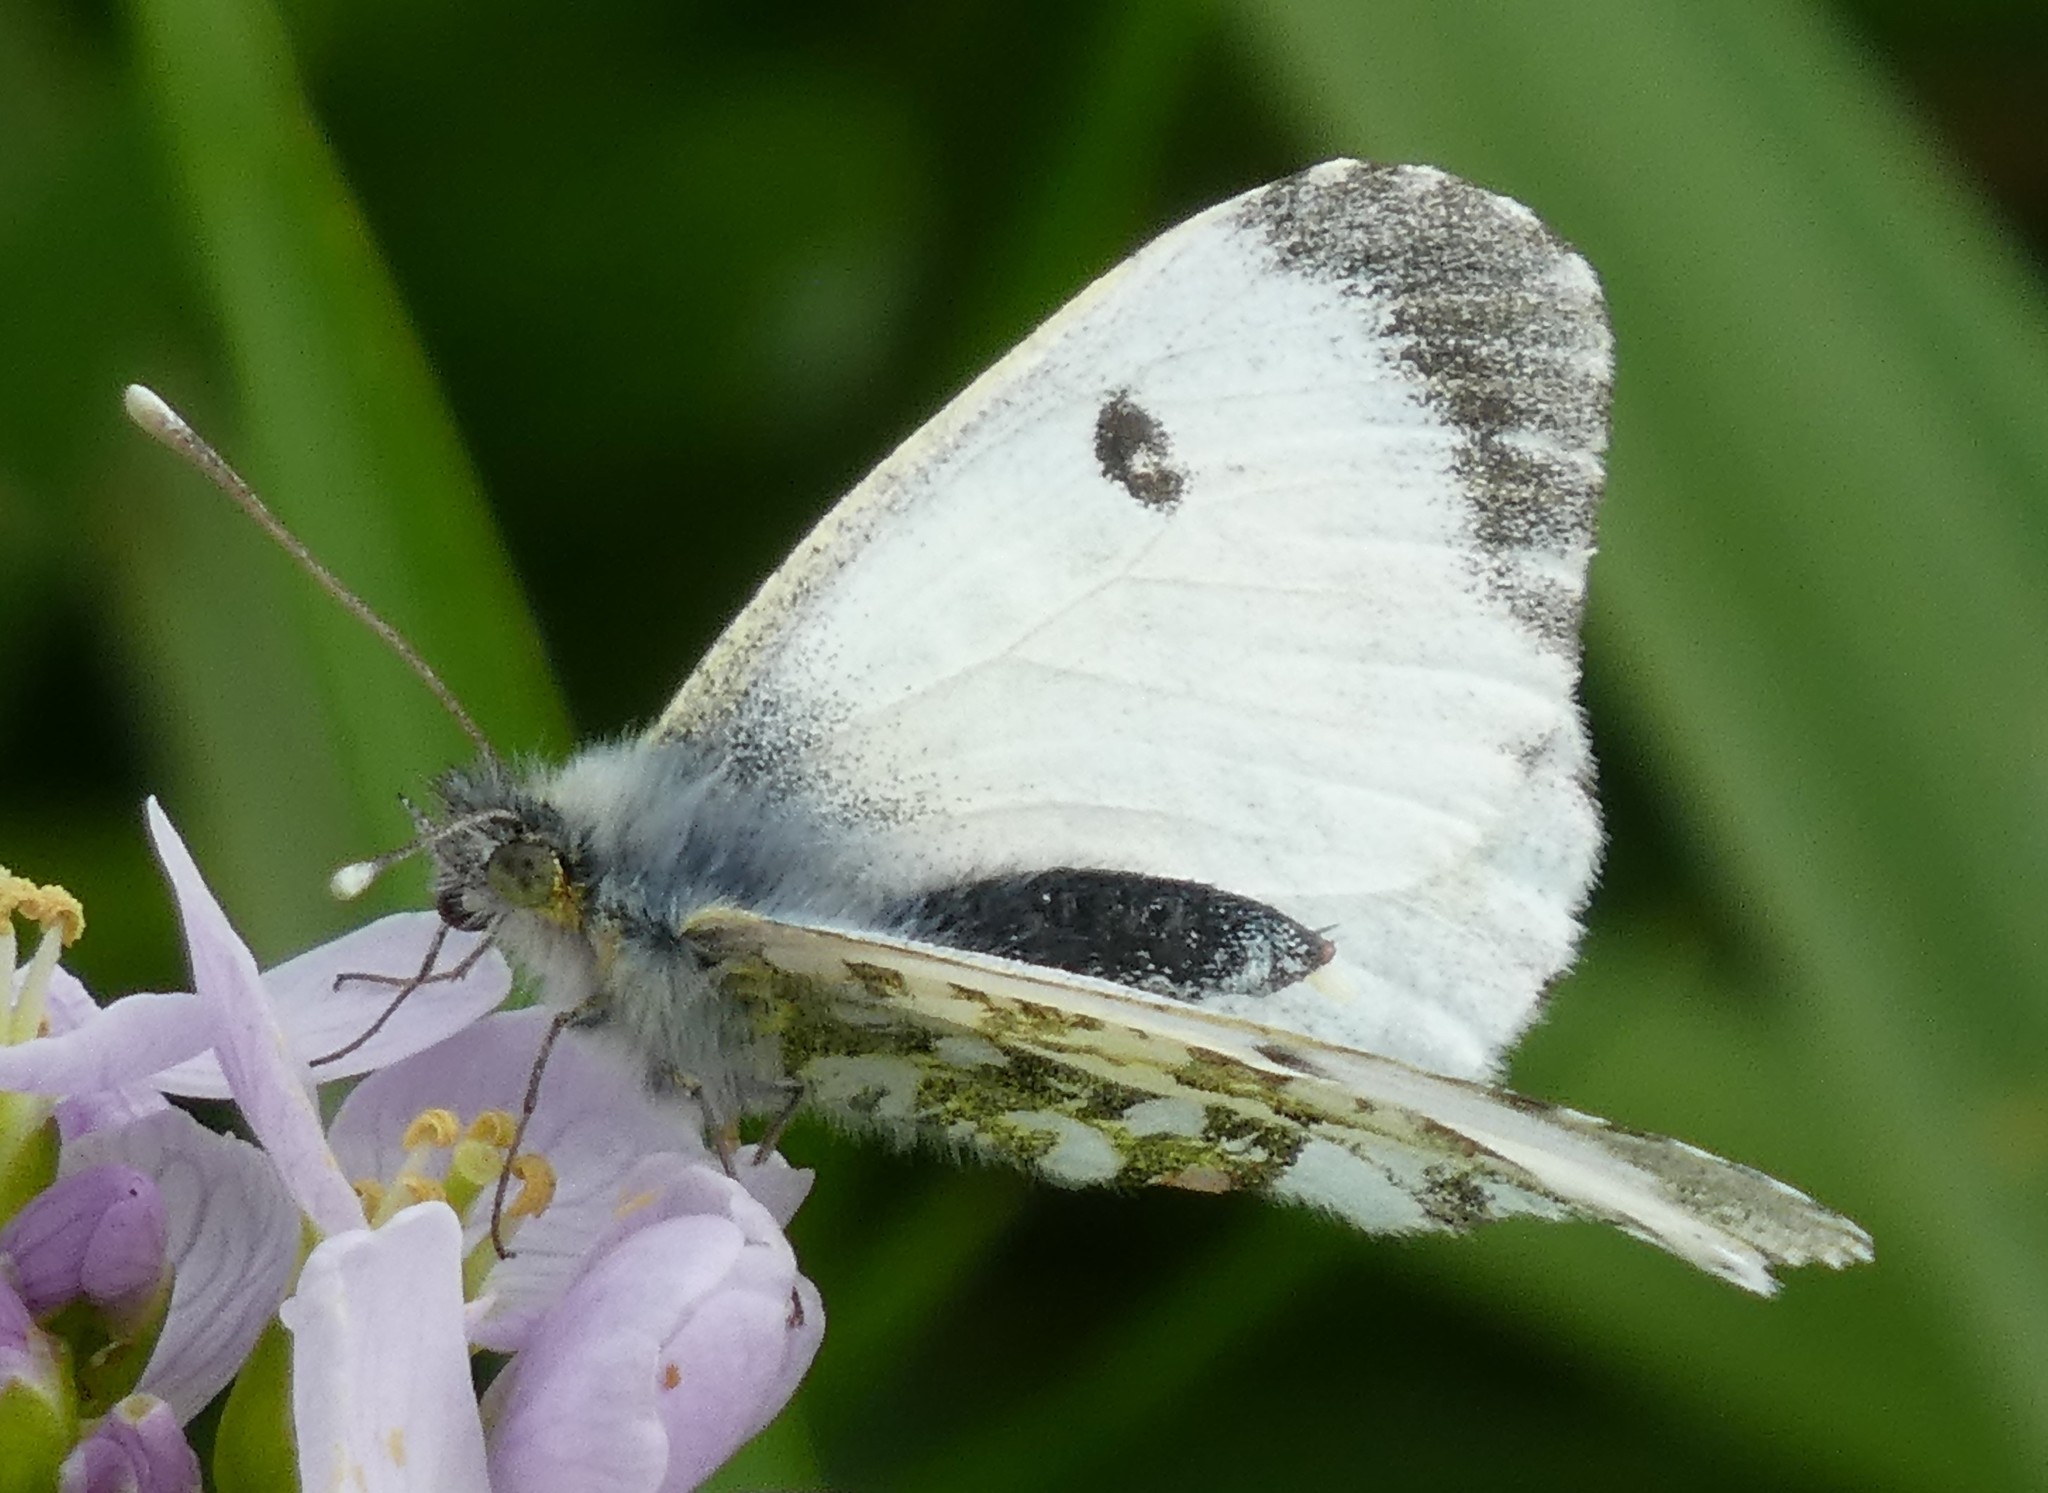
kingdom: Animalia
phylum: Arthropoda
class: Insecta
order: Lepidoptera
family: Pieridae
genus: Anthocharis
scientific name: Anthocharis cardamines
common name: Orange-tip
